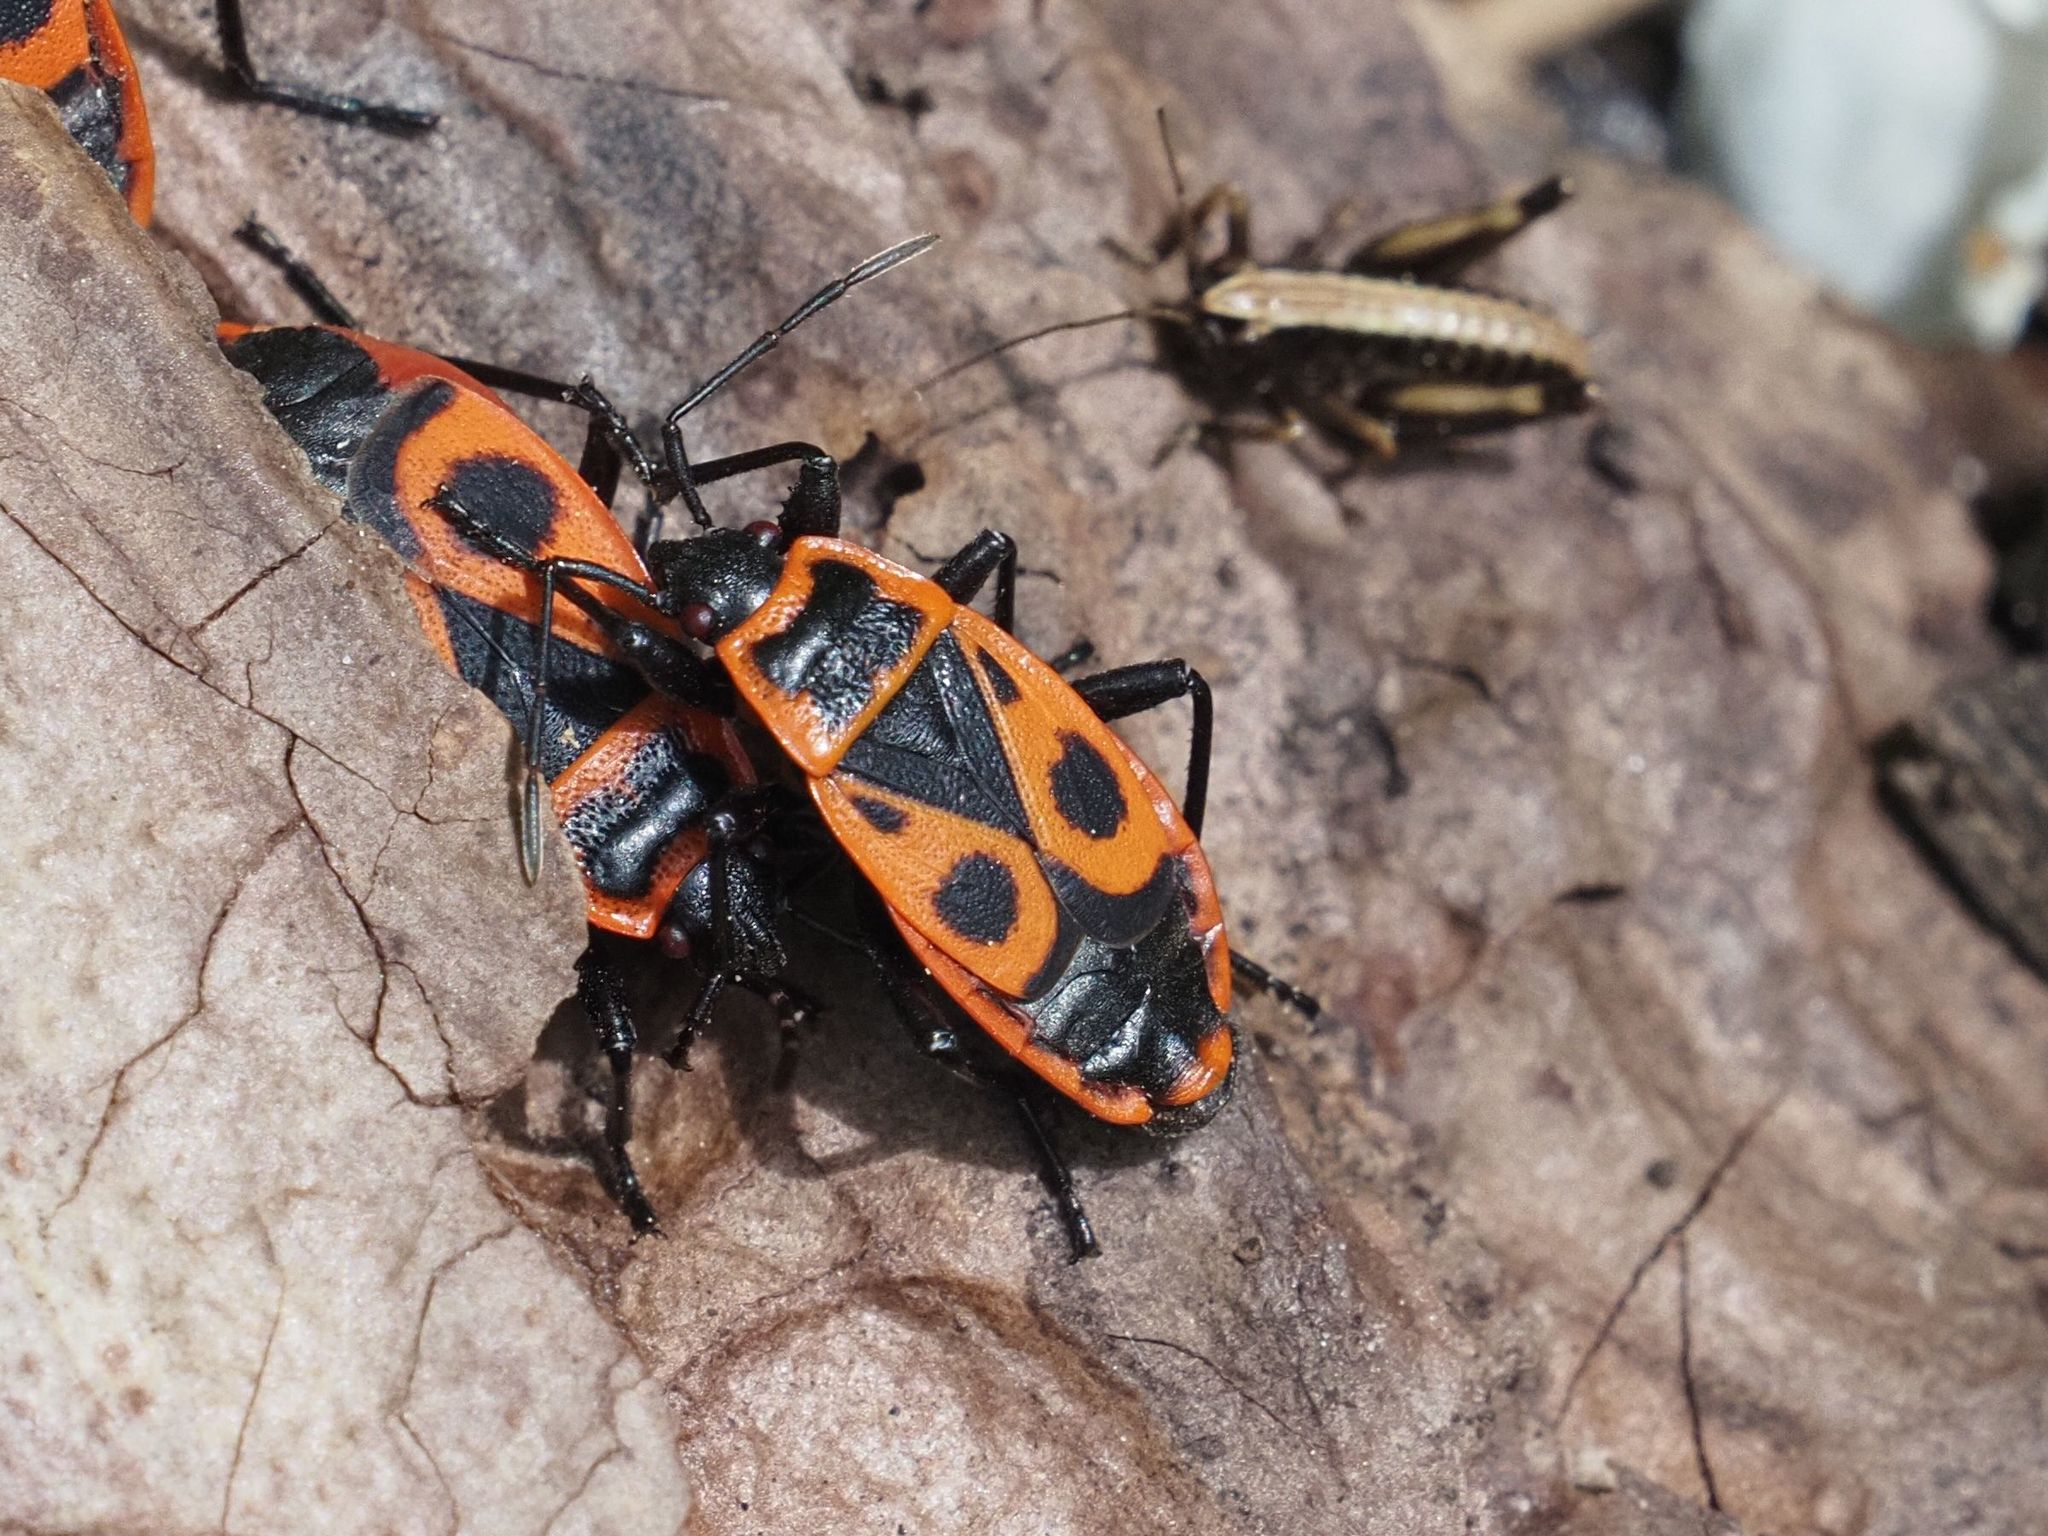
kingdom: Animalia
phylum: Arthropoda
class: Insecta
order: Hemiptera
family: Pyrrhocoridae
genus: Pyrrhocoris
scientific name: Pyrrhocoris apterus
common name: Firebug
